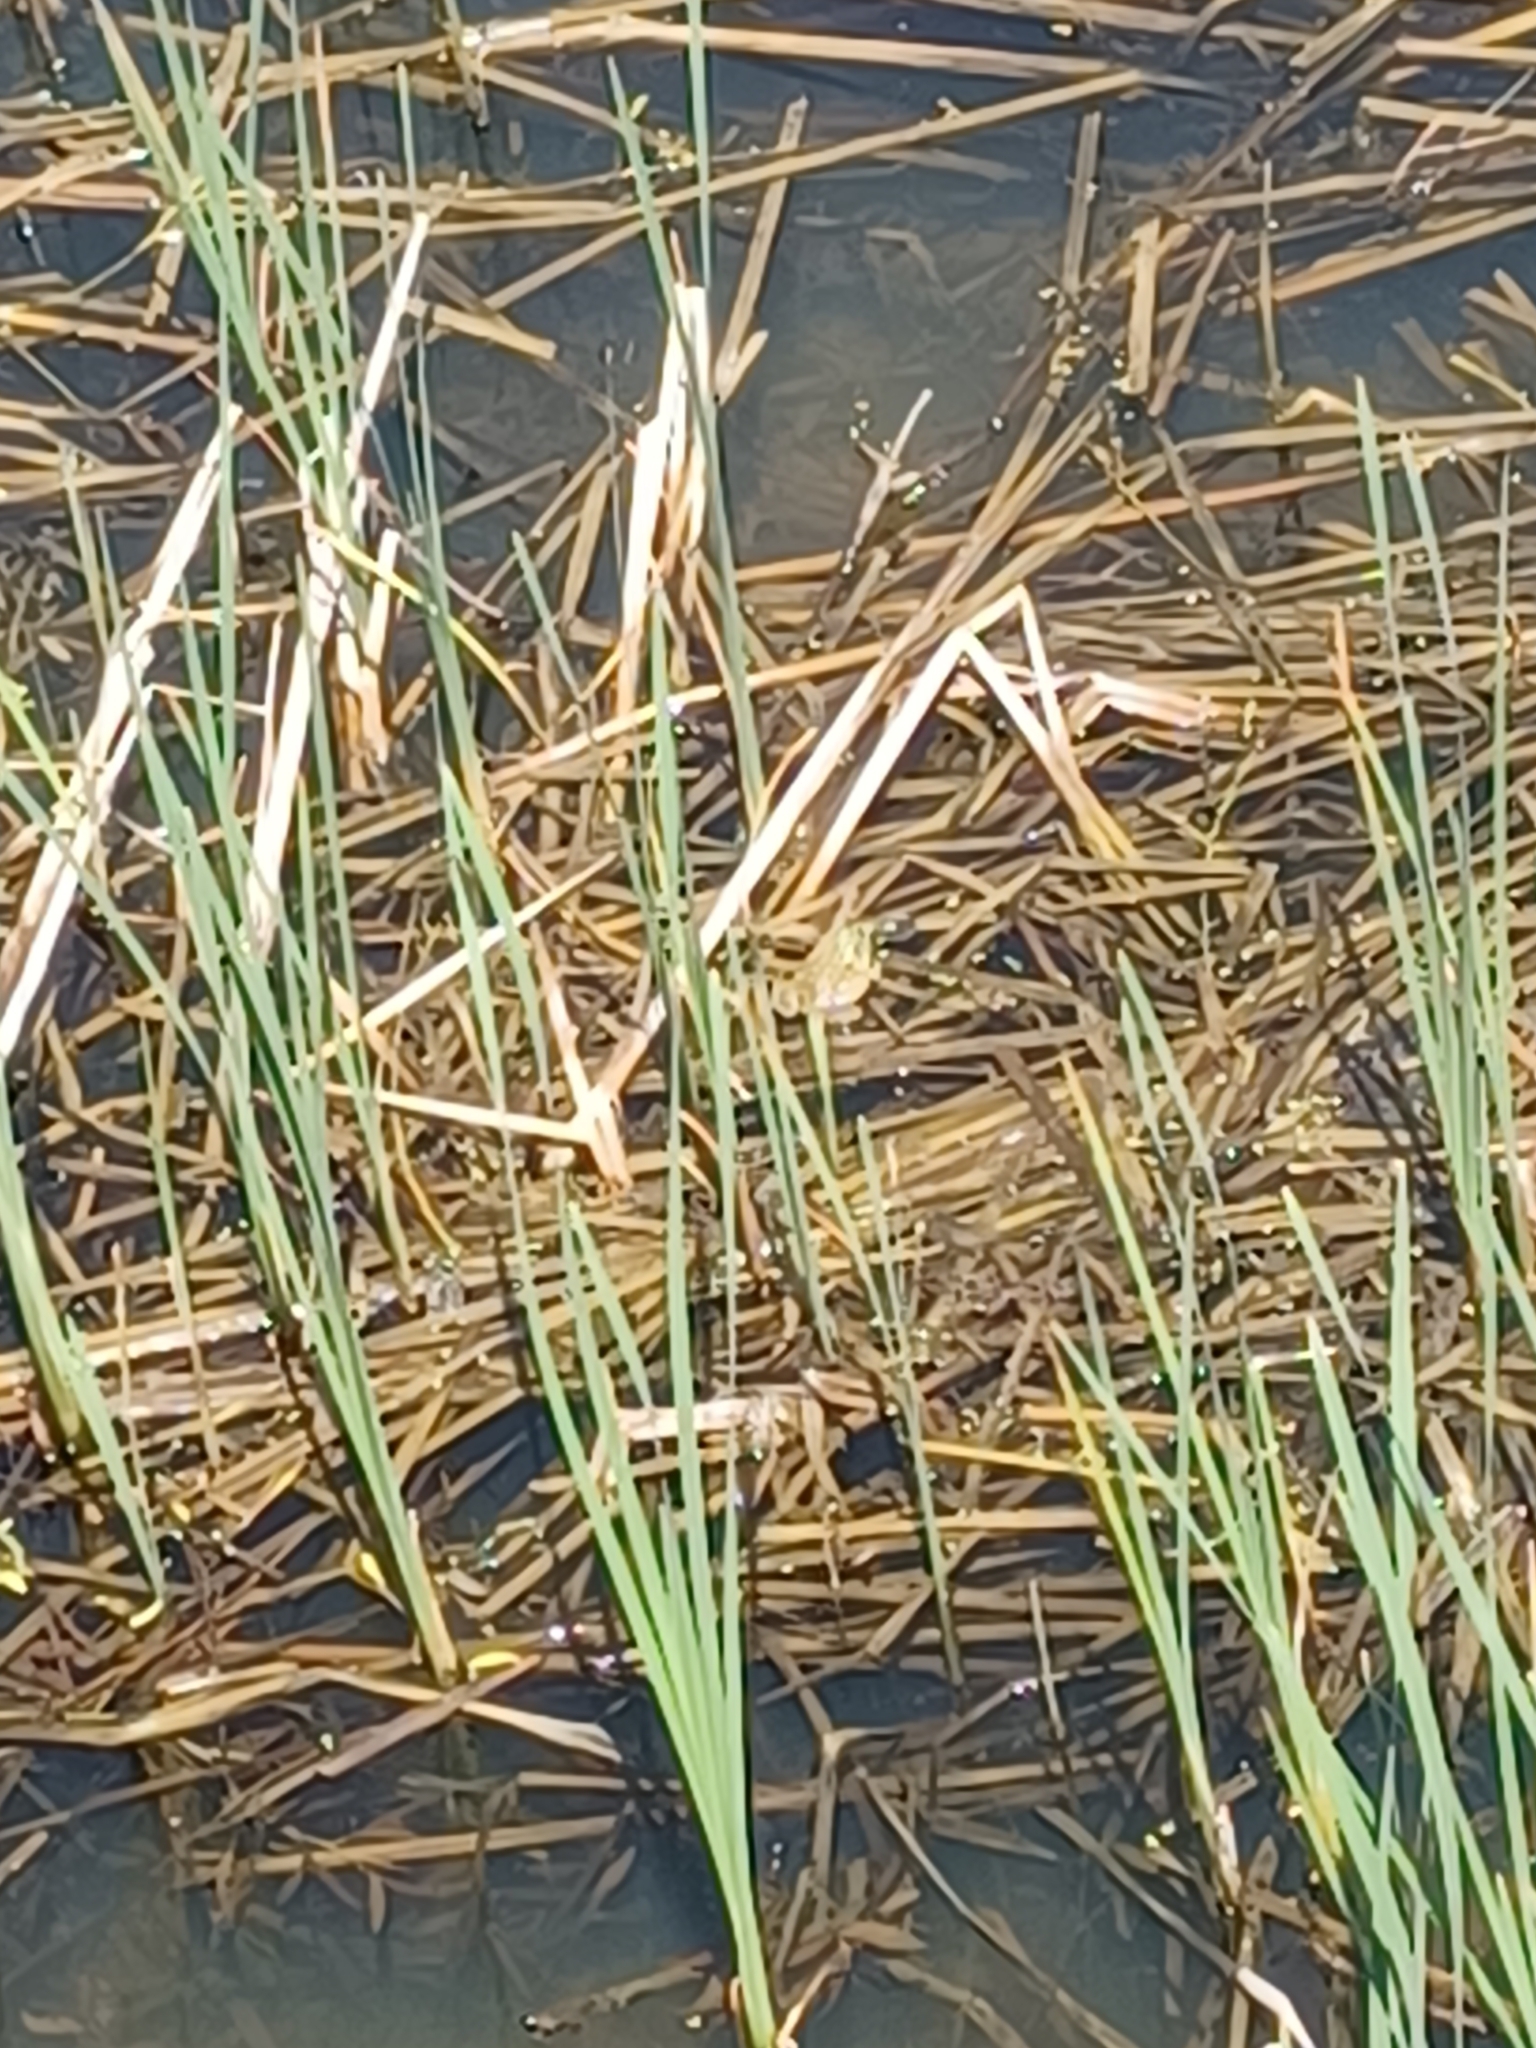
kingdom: Animalia
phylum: Chordata
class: Amphibia
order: Anura
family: Ranidae
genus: Lithobates
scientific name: Lithobates clamitans
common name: Green frog
